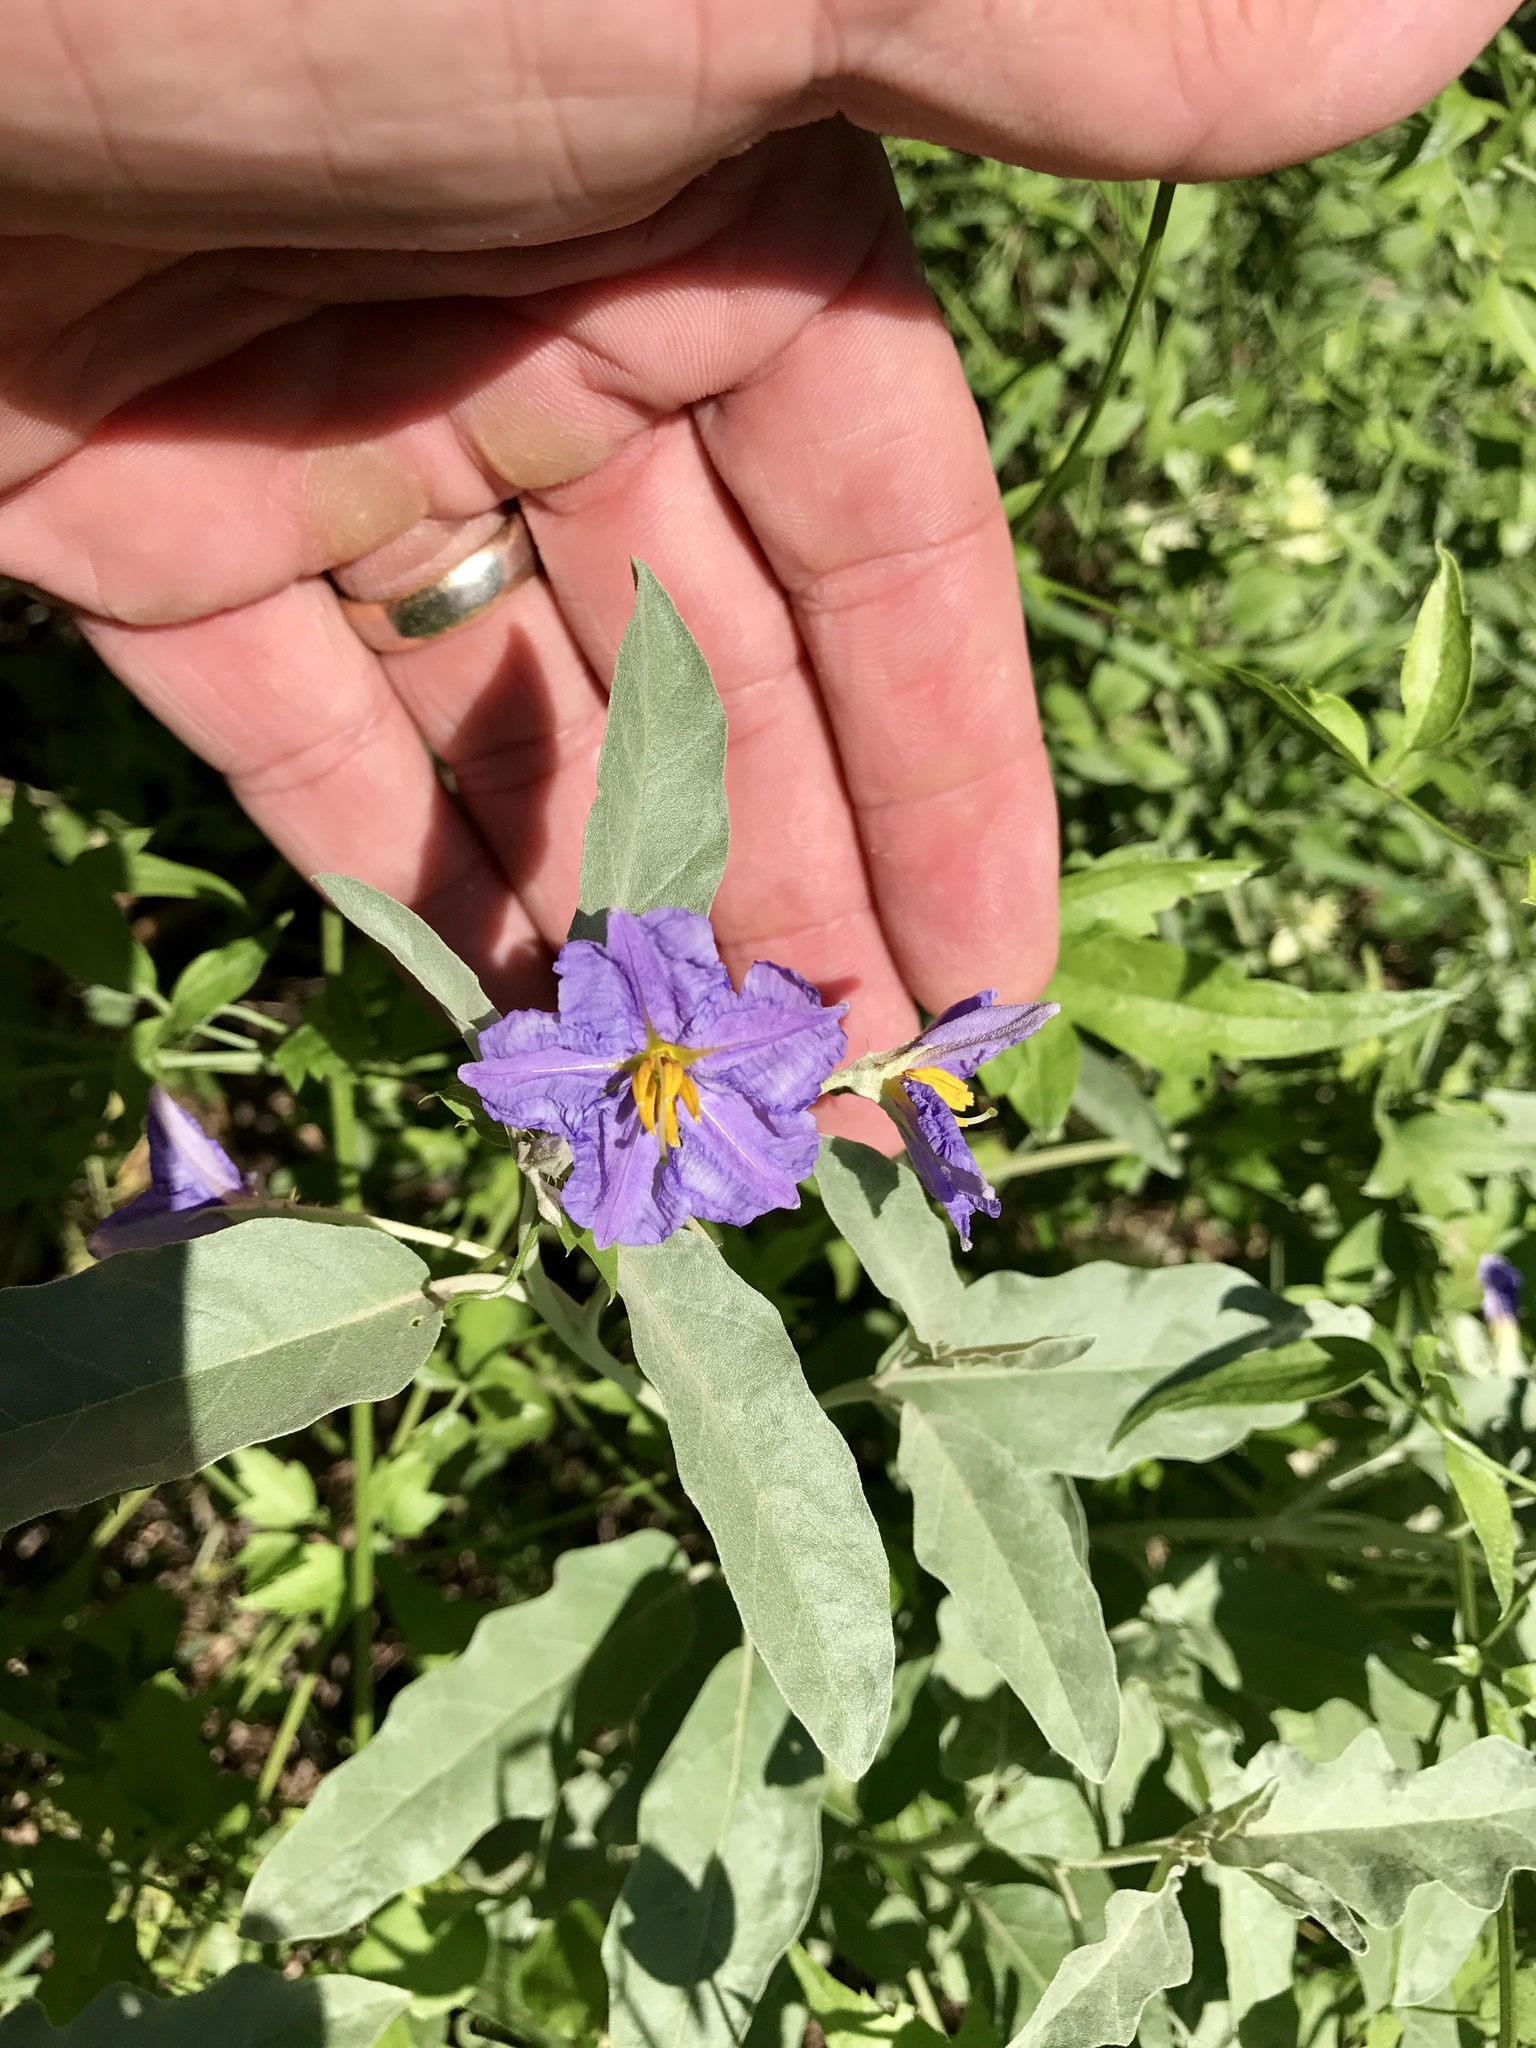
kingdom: Plantae
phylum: Tracheophyta
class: Magnoliopsida
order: Solanales
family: Solanaceae
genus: Solanum
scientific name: Solanum elaeagnifolium
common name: Silverleaf nightshade
